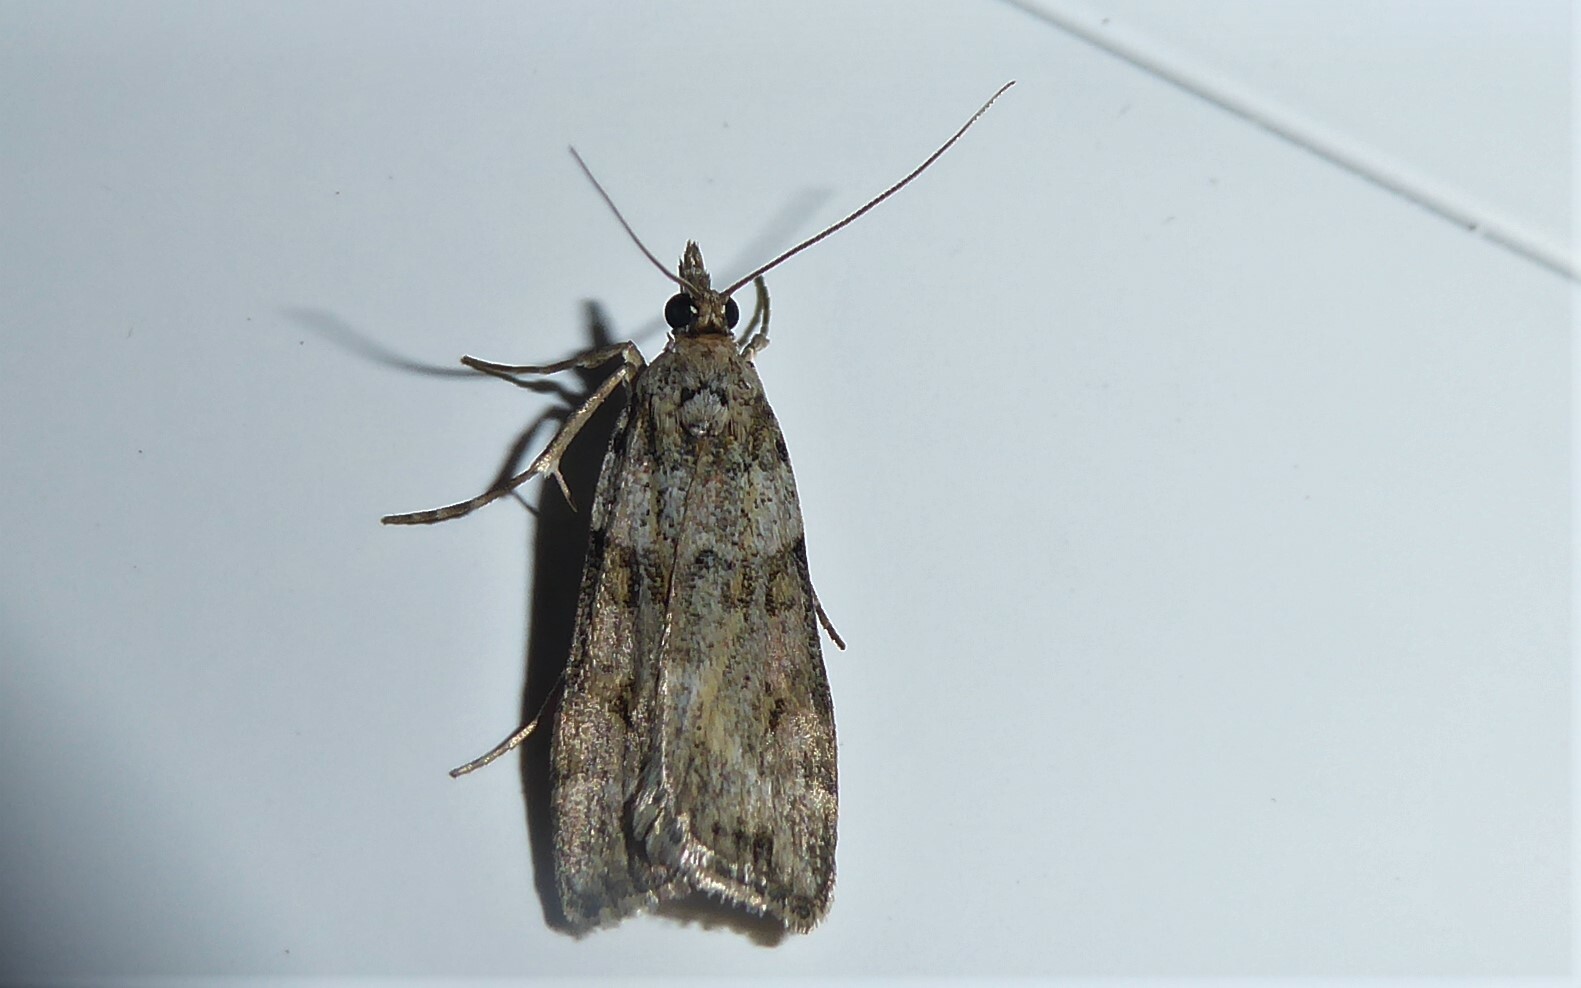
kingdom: Animalia
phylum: Arthropoda
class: Insecta
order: Lepidoptera
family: Crambidae
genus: Scoparia
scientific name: Scoparia tetracycla
